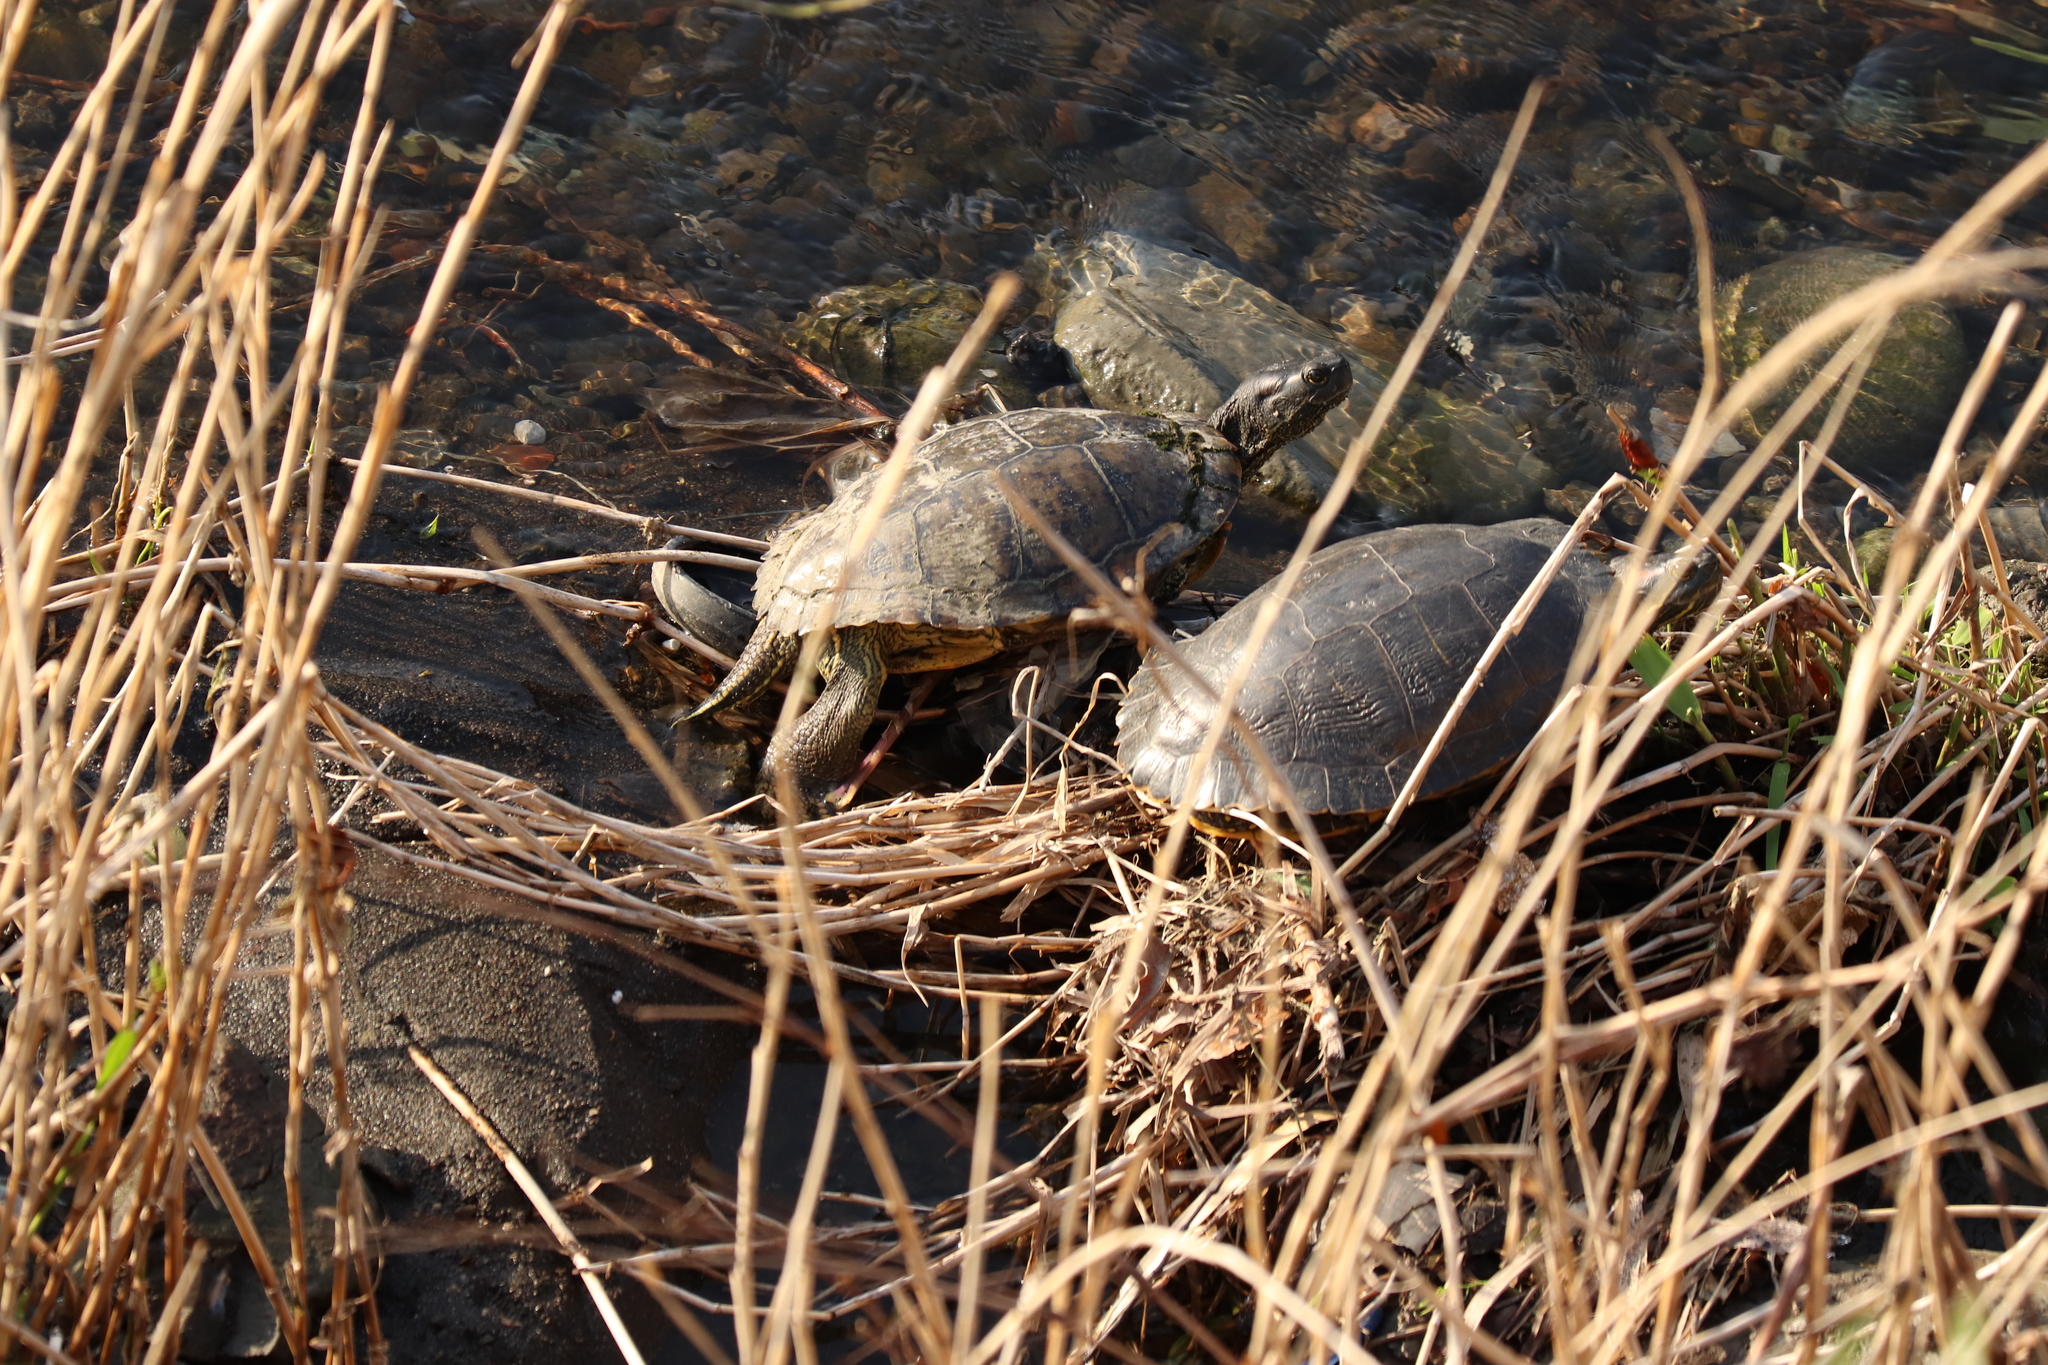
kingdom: Animalia
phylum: Chordata
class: Testudines
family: Emydidae
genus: Trachemys
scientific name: Trachemys scripta
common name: Slider
